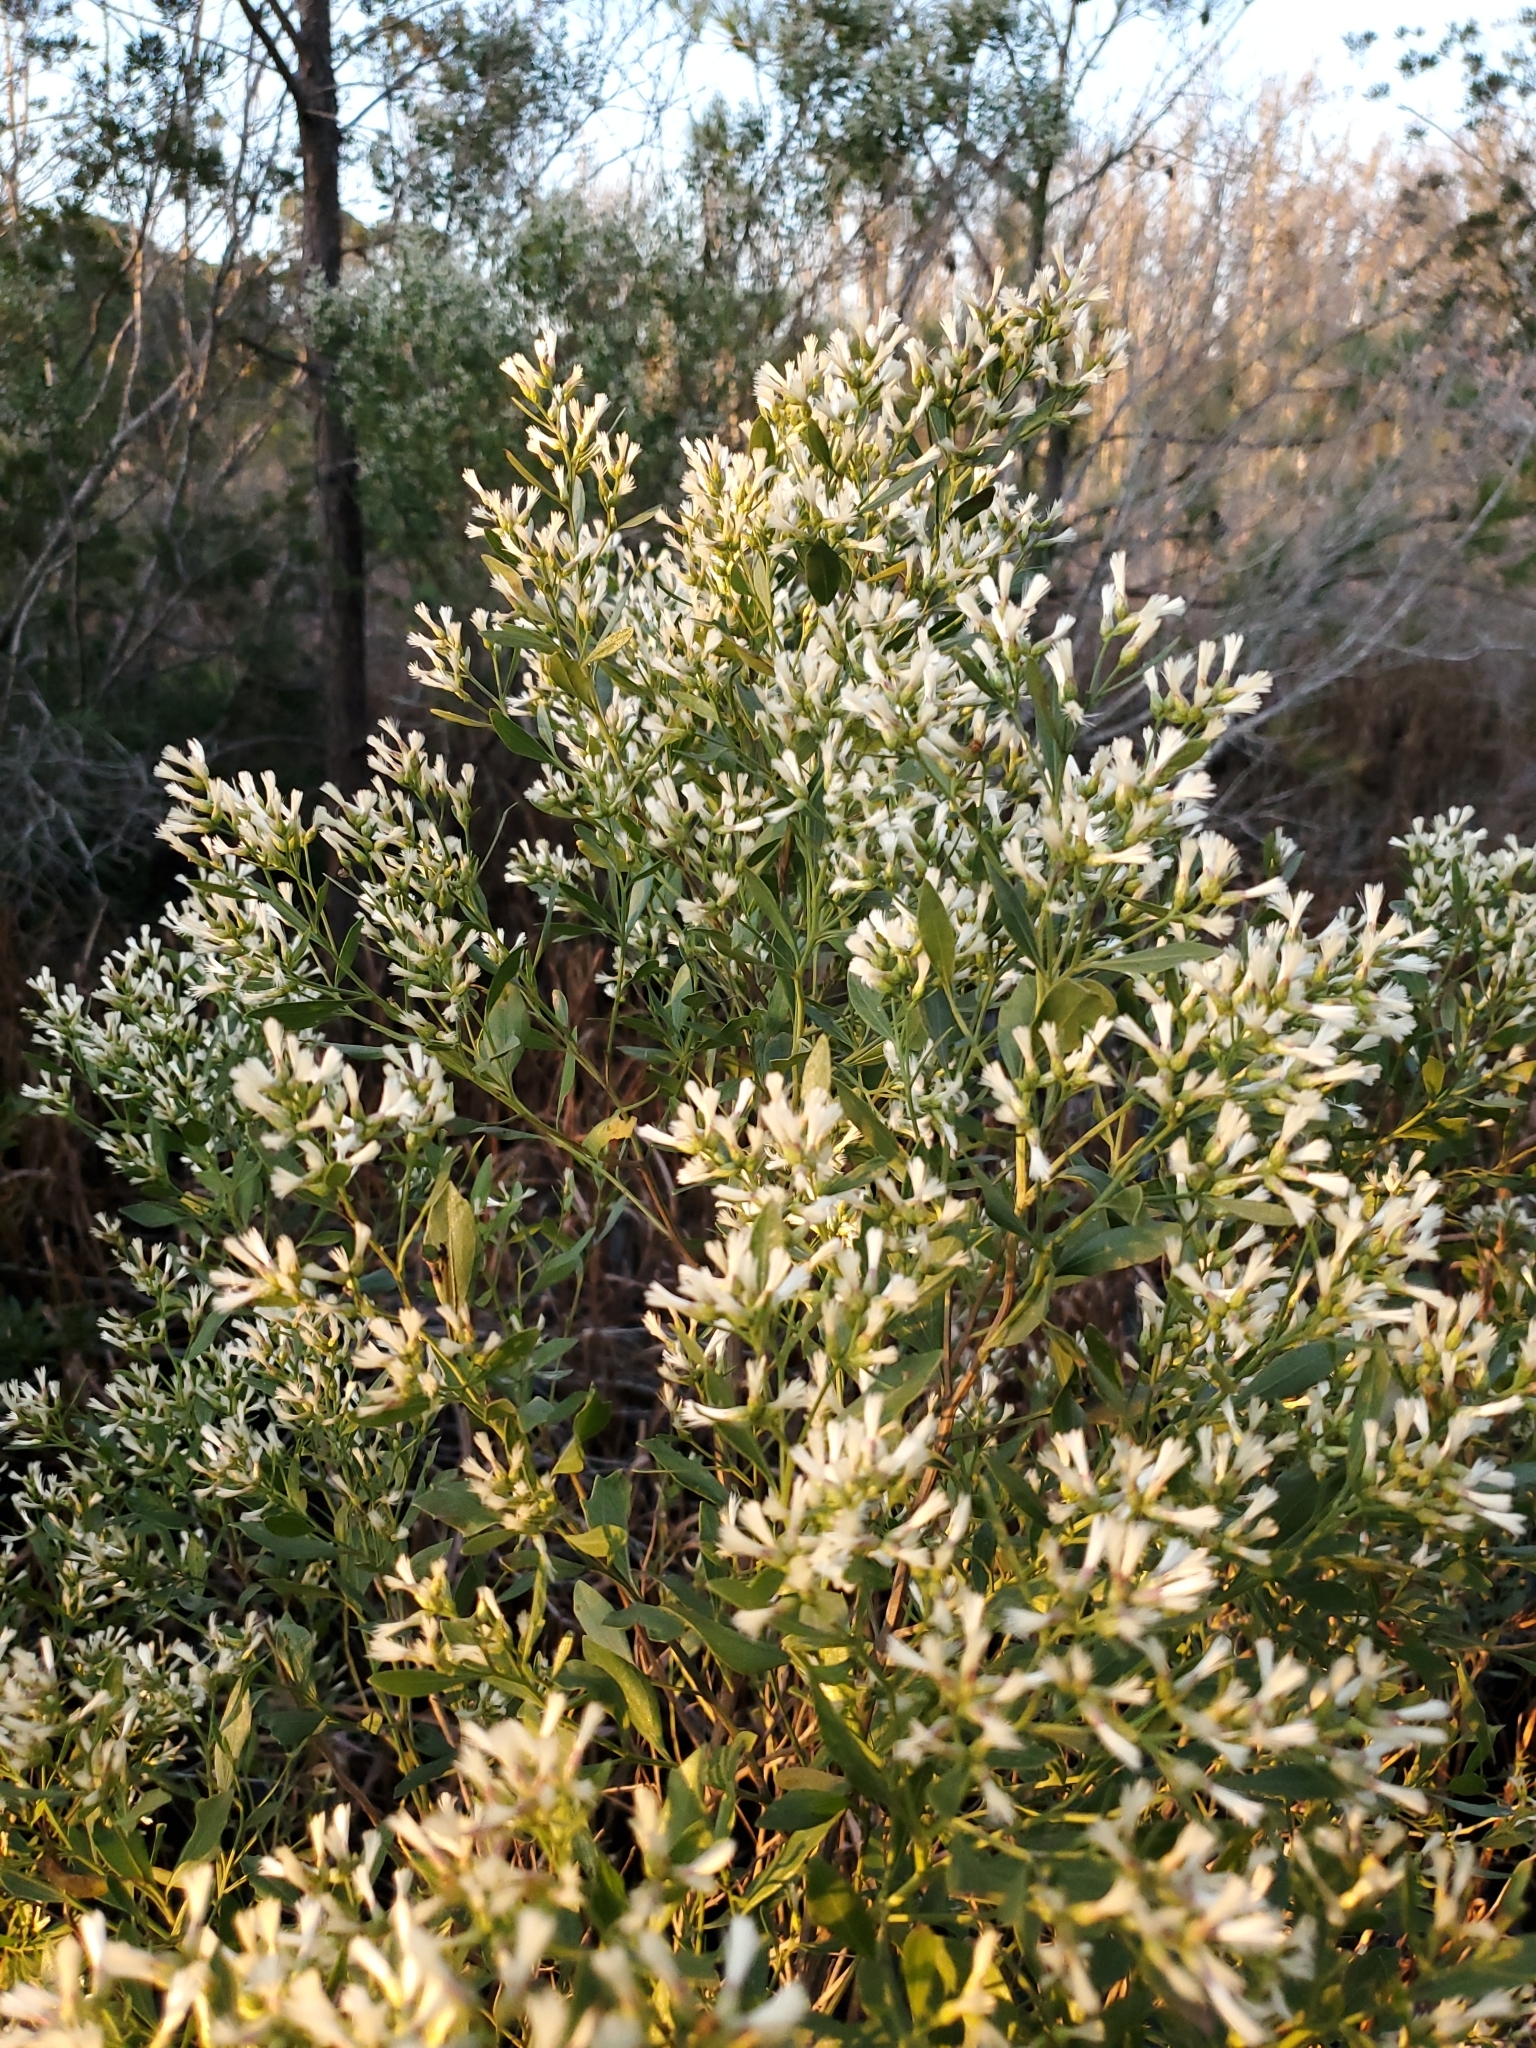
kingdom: Plantae
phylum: Tracheophyta
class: Magnoliopsida
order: Asterales
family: Asteraceae
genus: Baccharis
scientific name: Baccharis halimifolia
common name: Eastern baccharis
